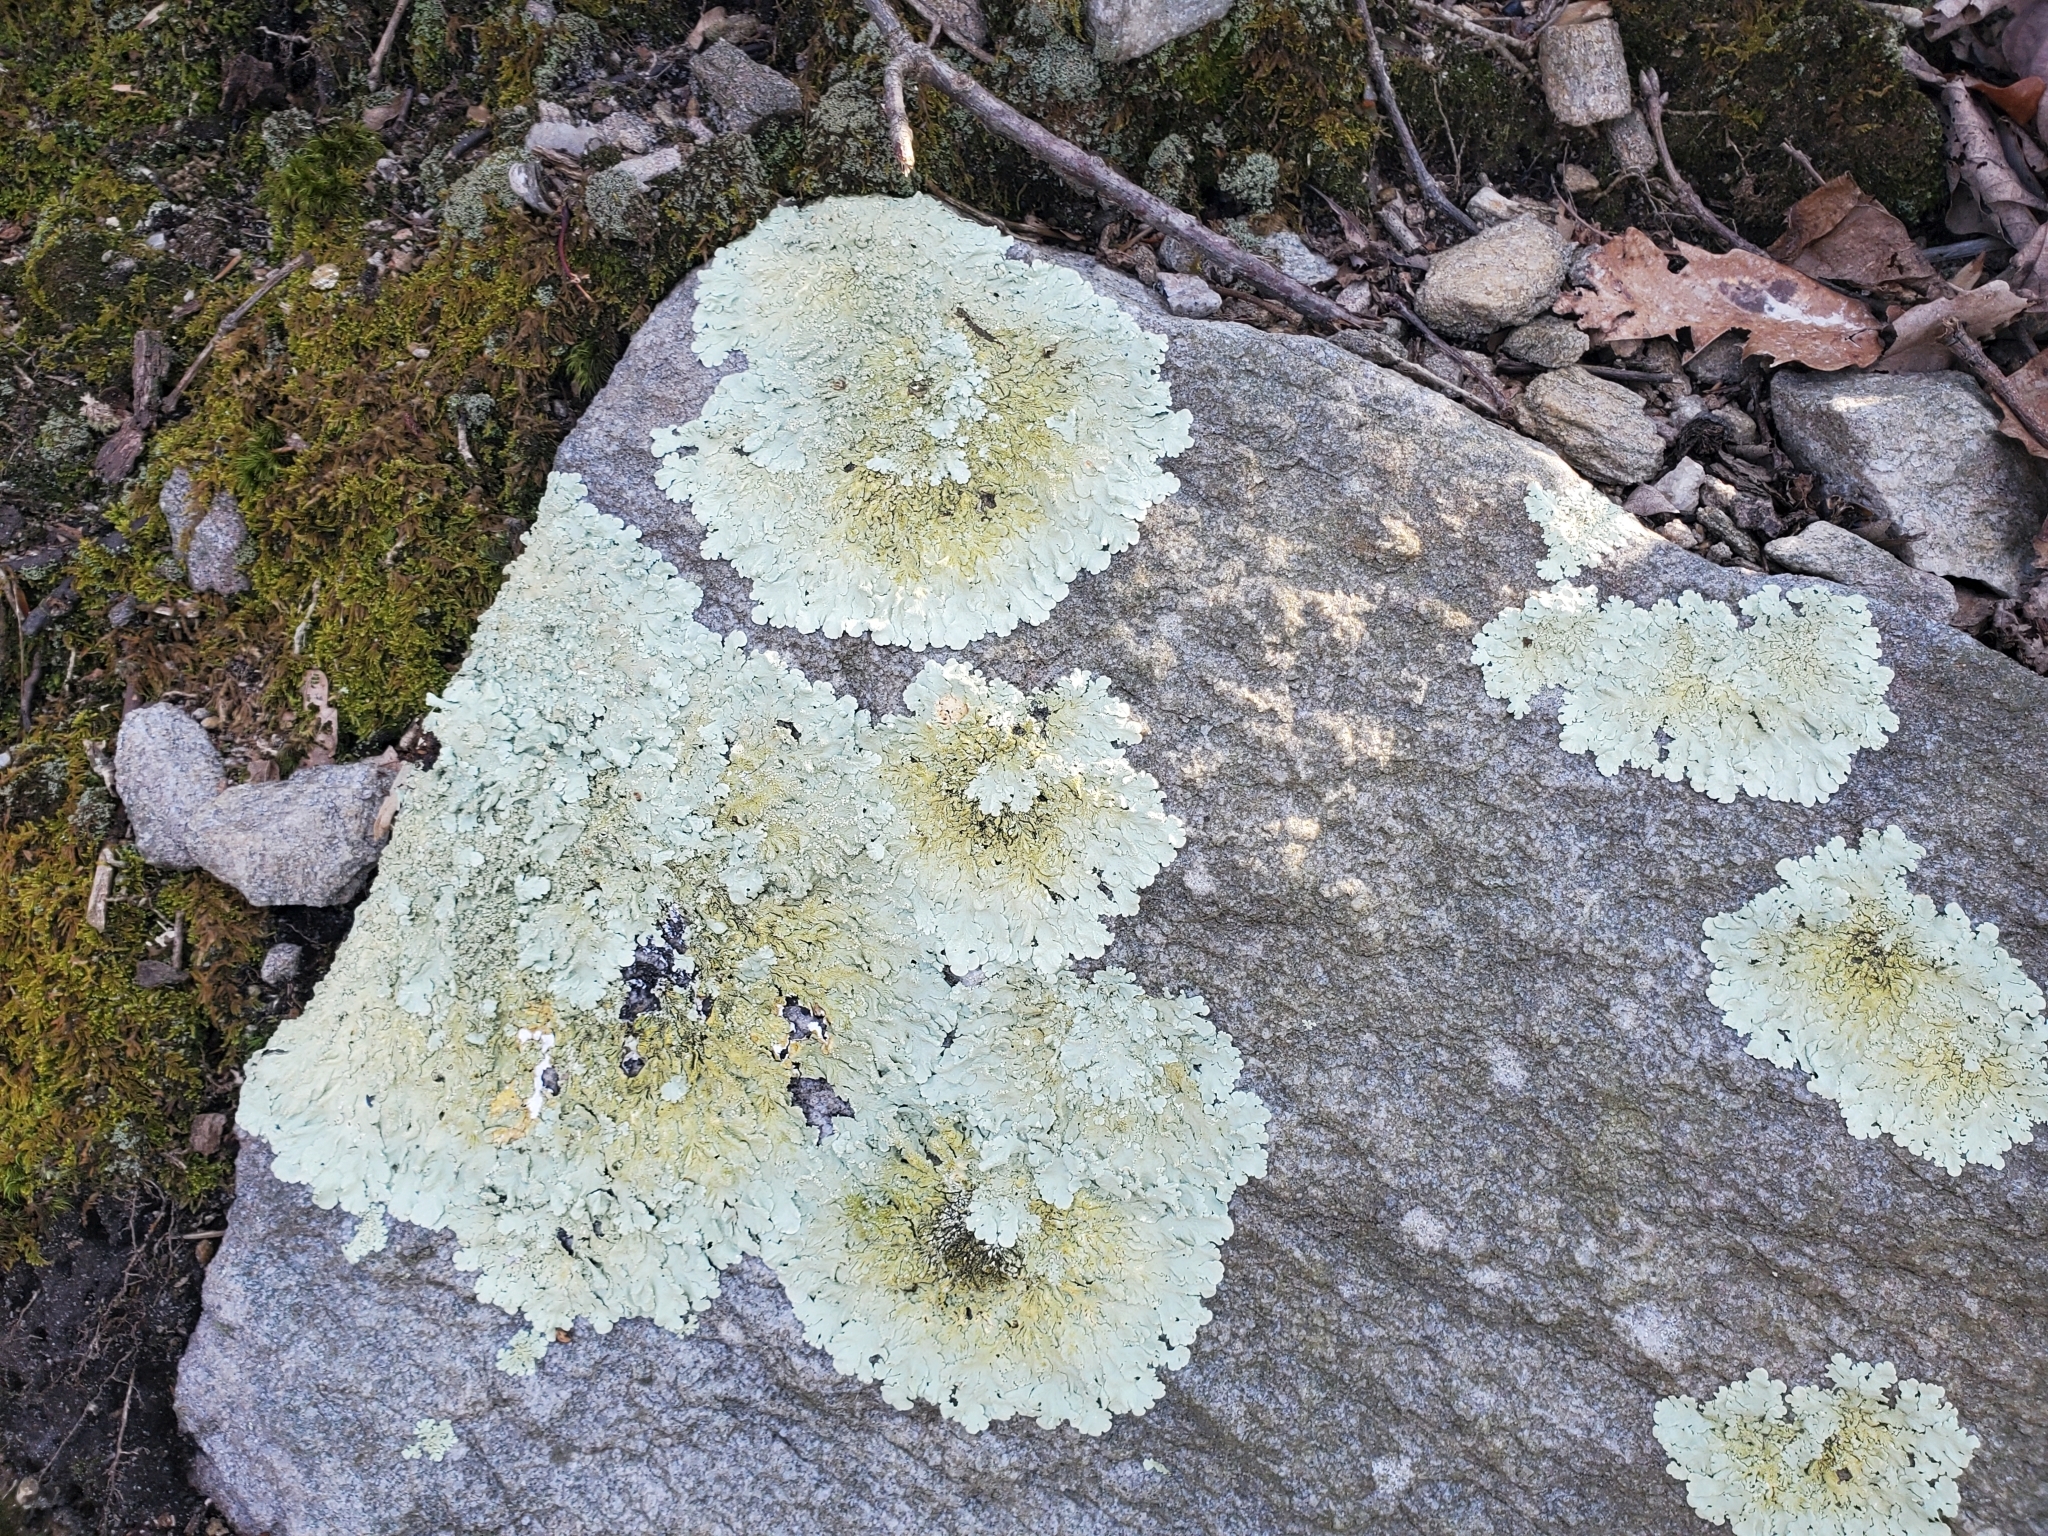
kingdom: Fungi
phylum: Ascomycota
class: Lecanoromycetes
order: Lecanorales
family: Parmeliaceae
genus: Flavoparmelia
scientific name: Flavoparmelia baltimorensis
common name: Rock greenshield
